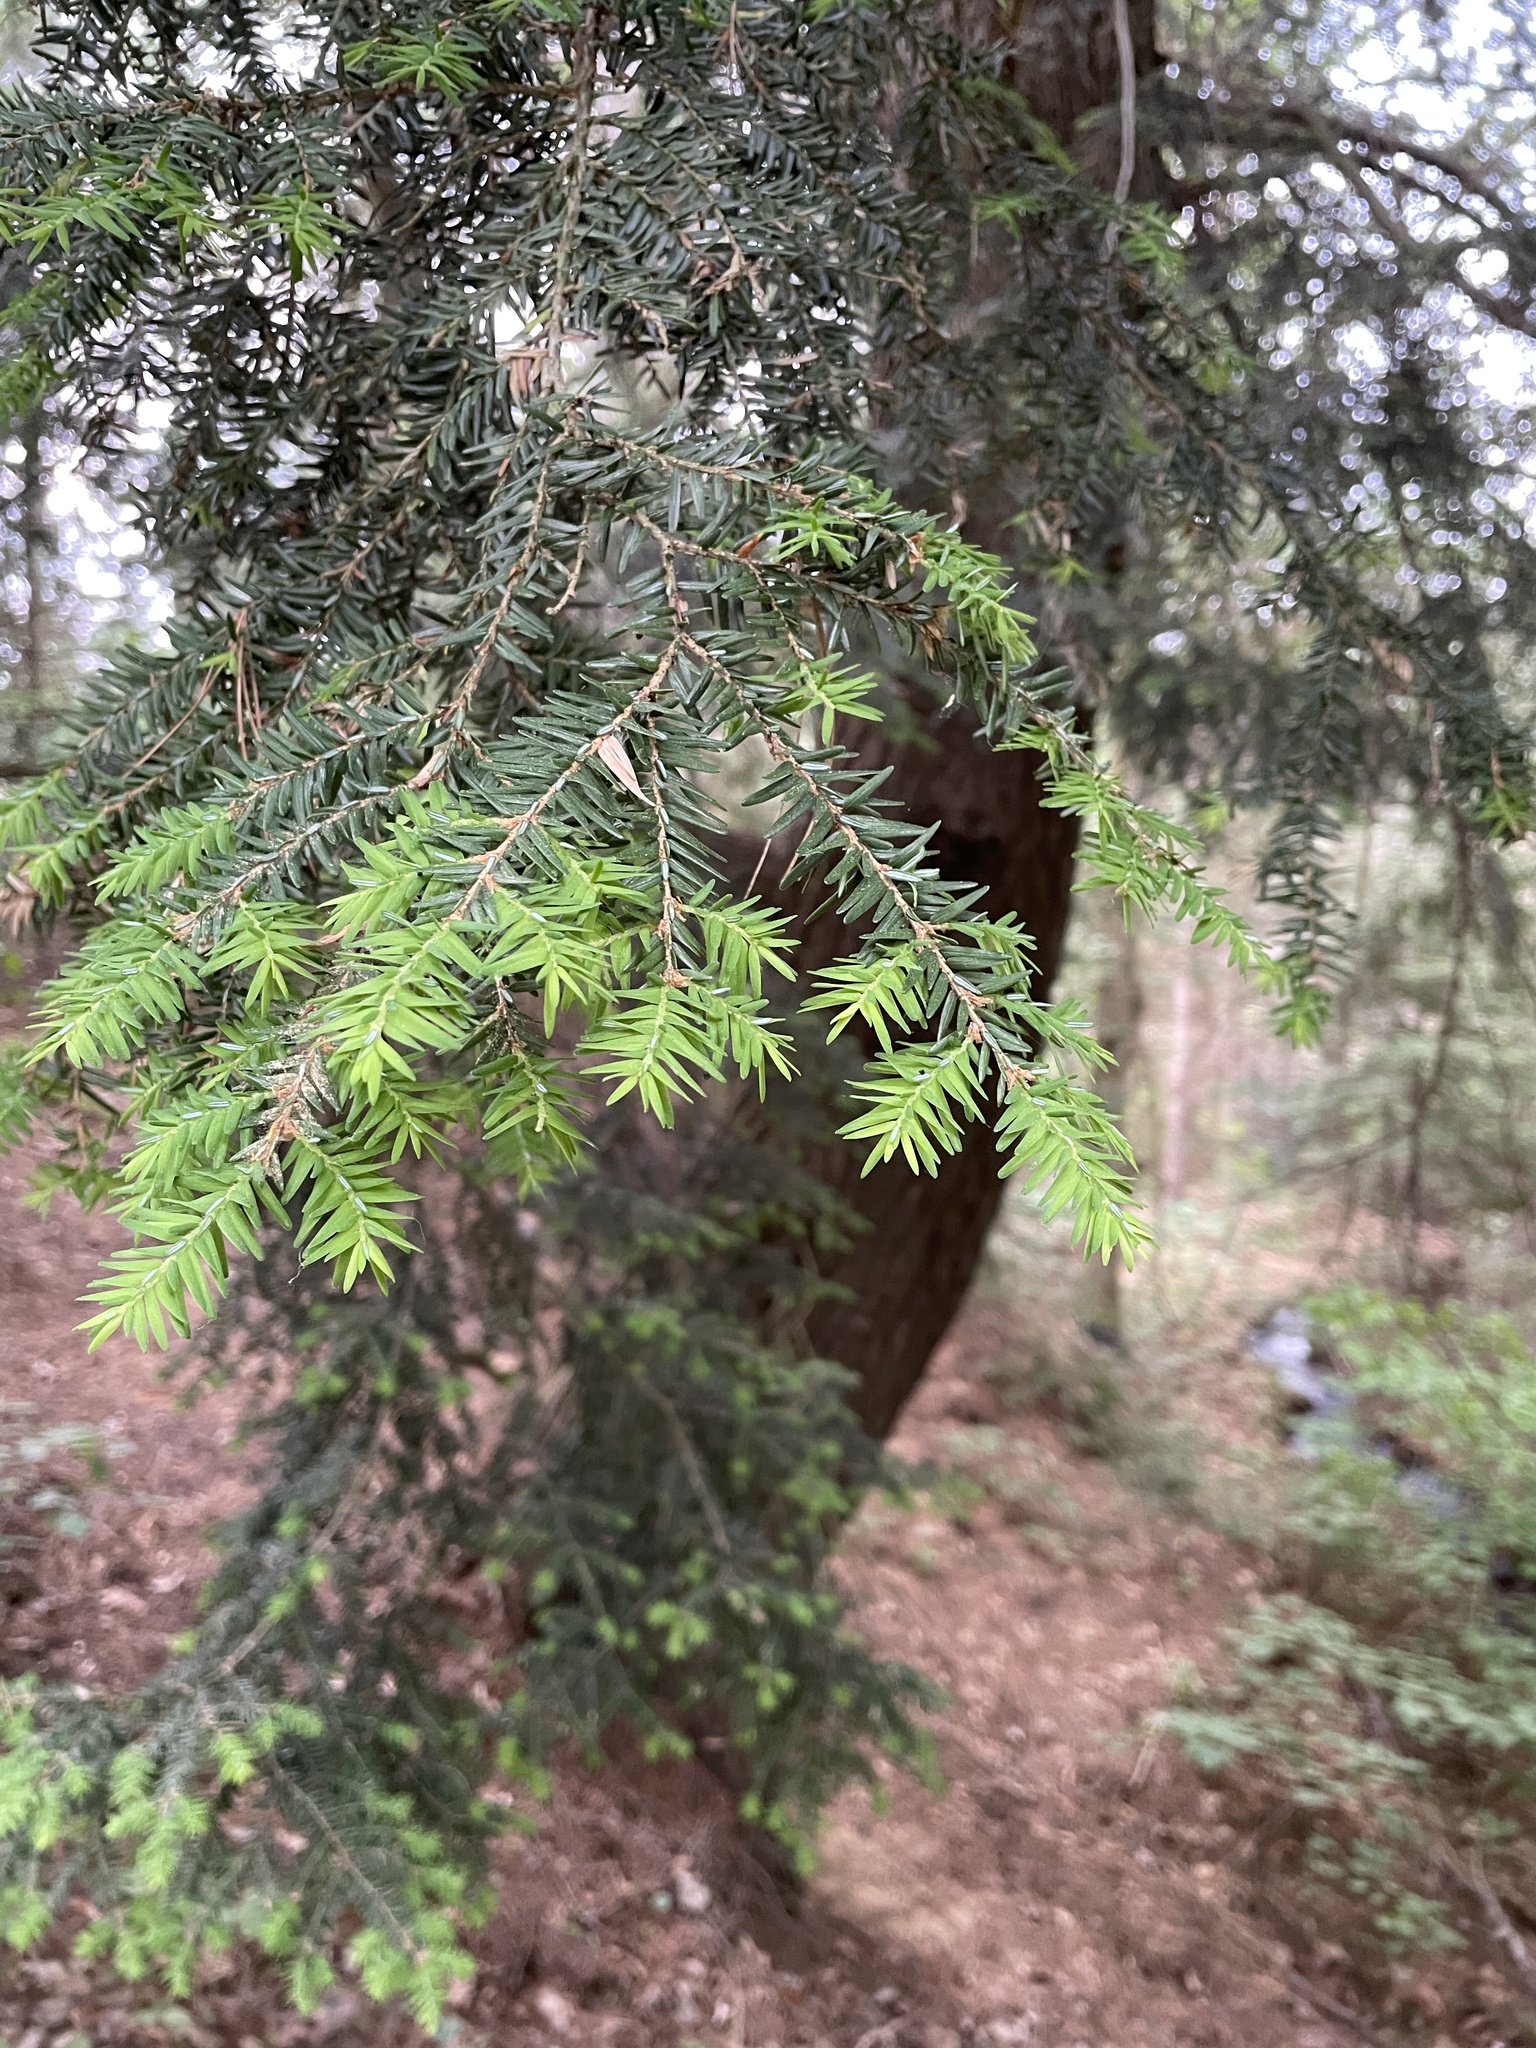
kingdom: Plantae
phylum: Tracheophyta
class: Pinopsida
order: Pinales
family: Pinaceae
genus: Tsuga
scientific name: Tsuga canadensis
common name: Eastern hemlock
